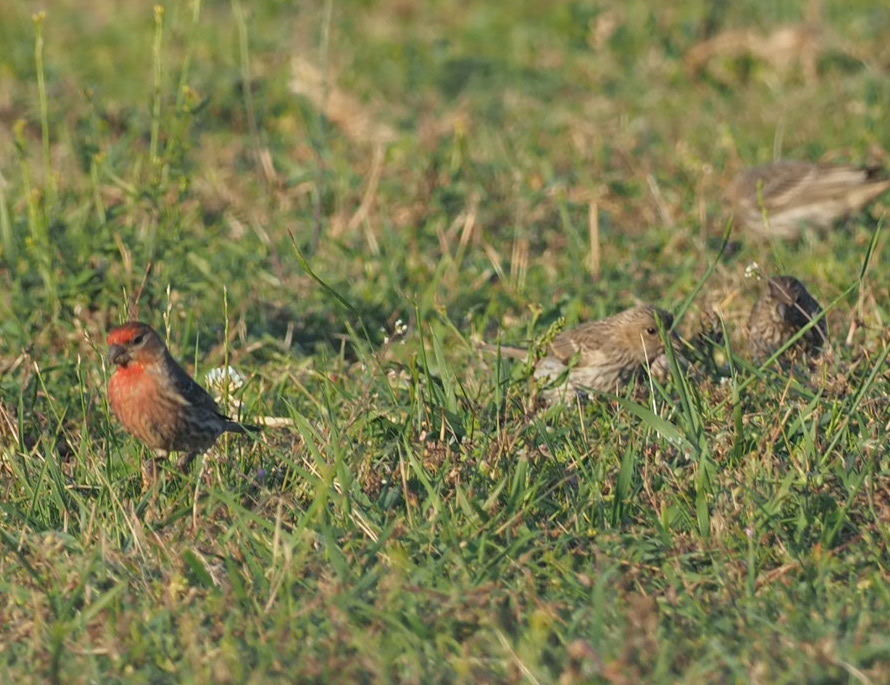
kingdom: Animalia
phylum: Chordata
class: Aves
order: Passeriformes
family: Fringillidae
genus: Haemorhous
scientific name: Haemorhous mexicanus
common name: House finch
